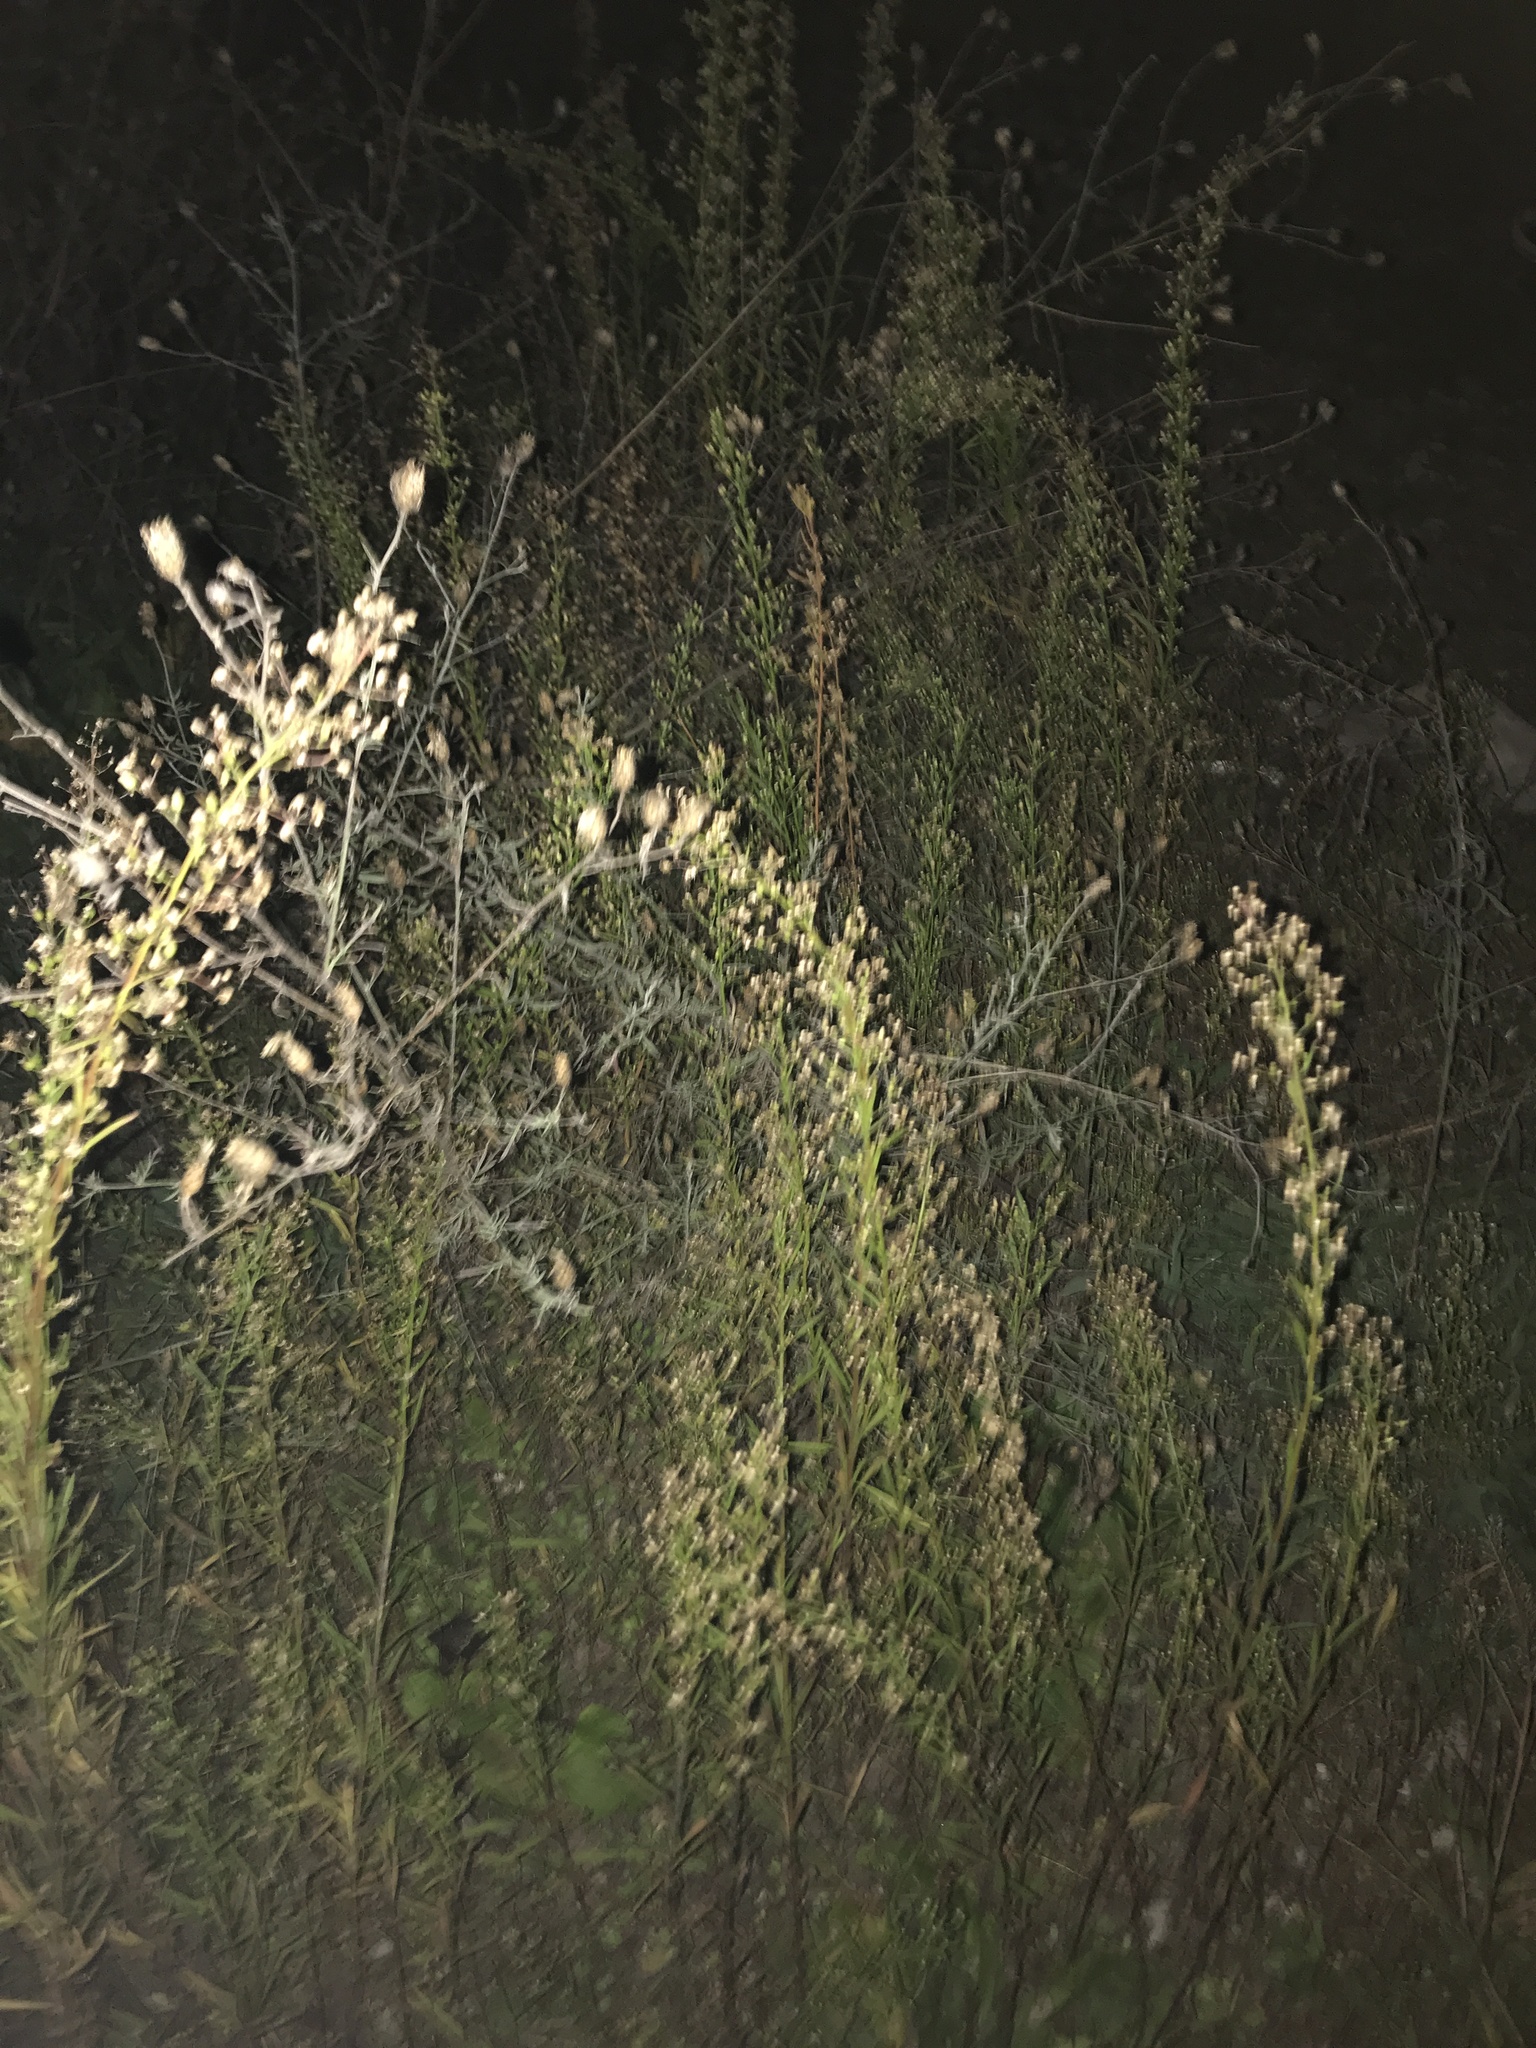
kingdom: Plantae
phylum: Tracheophyta
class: Magnoliopsida
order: Asterales
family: Asteraceae
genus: Erigeron
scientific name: Erigeron canadensis
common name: Canadian fleabane
